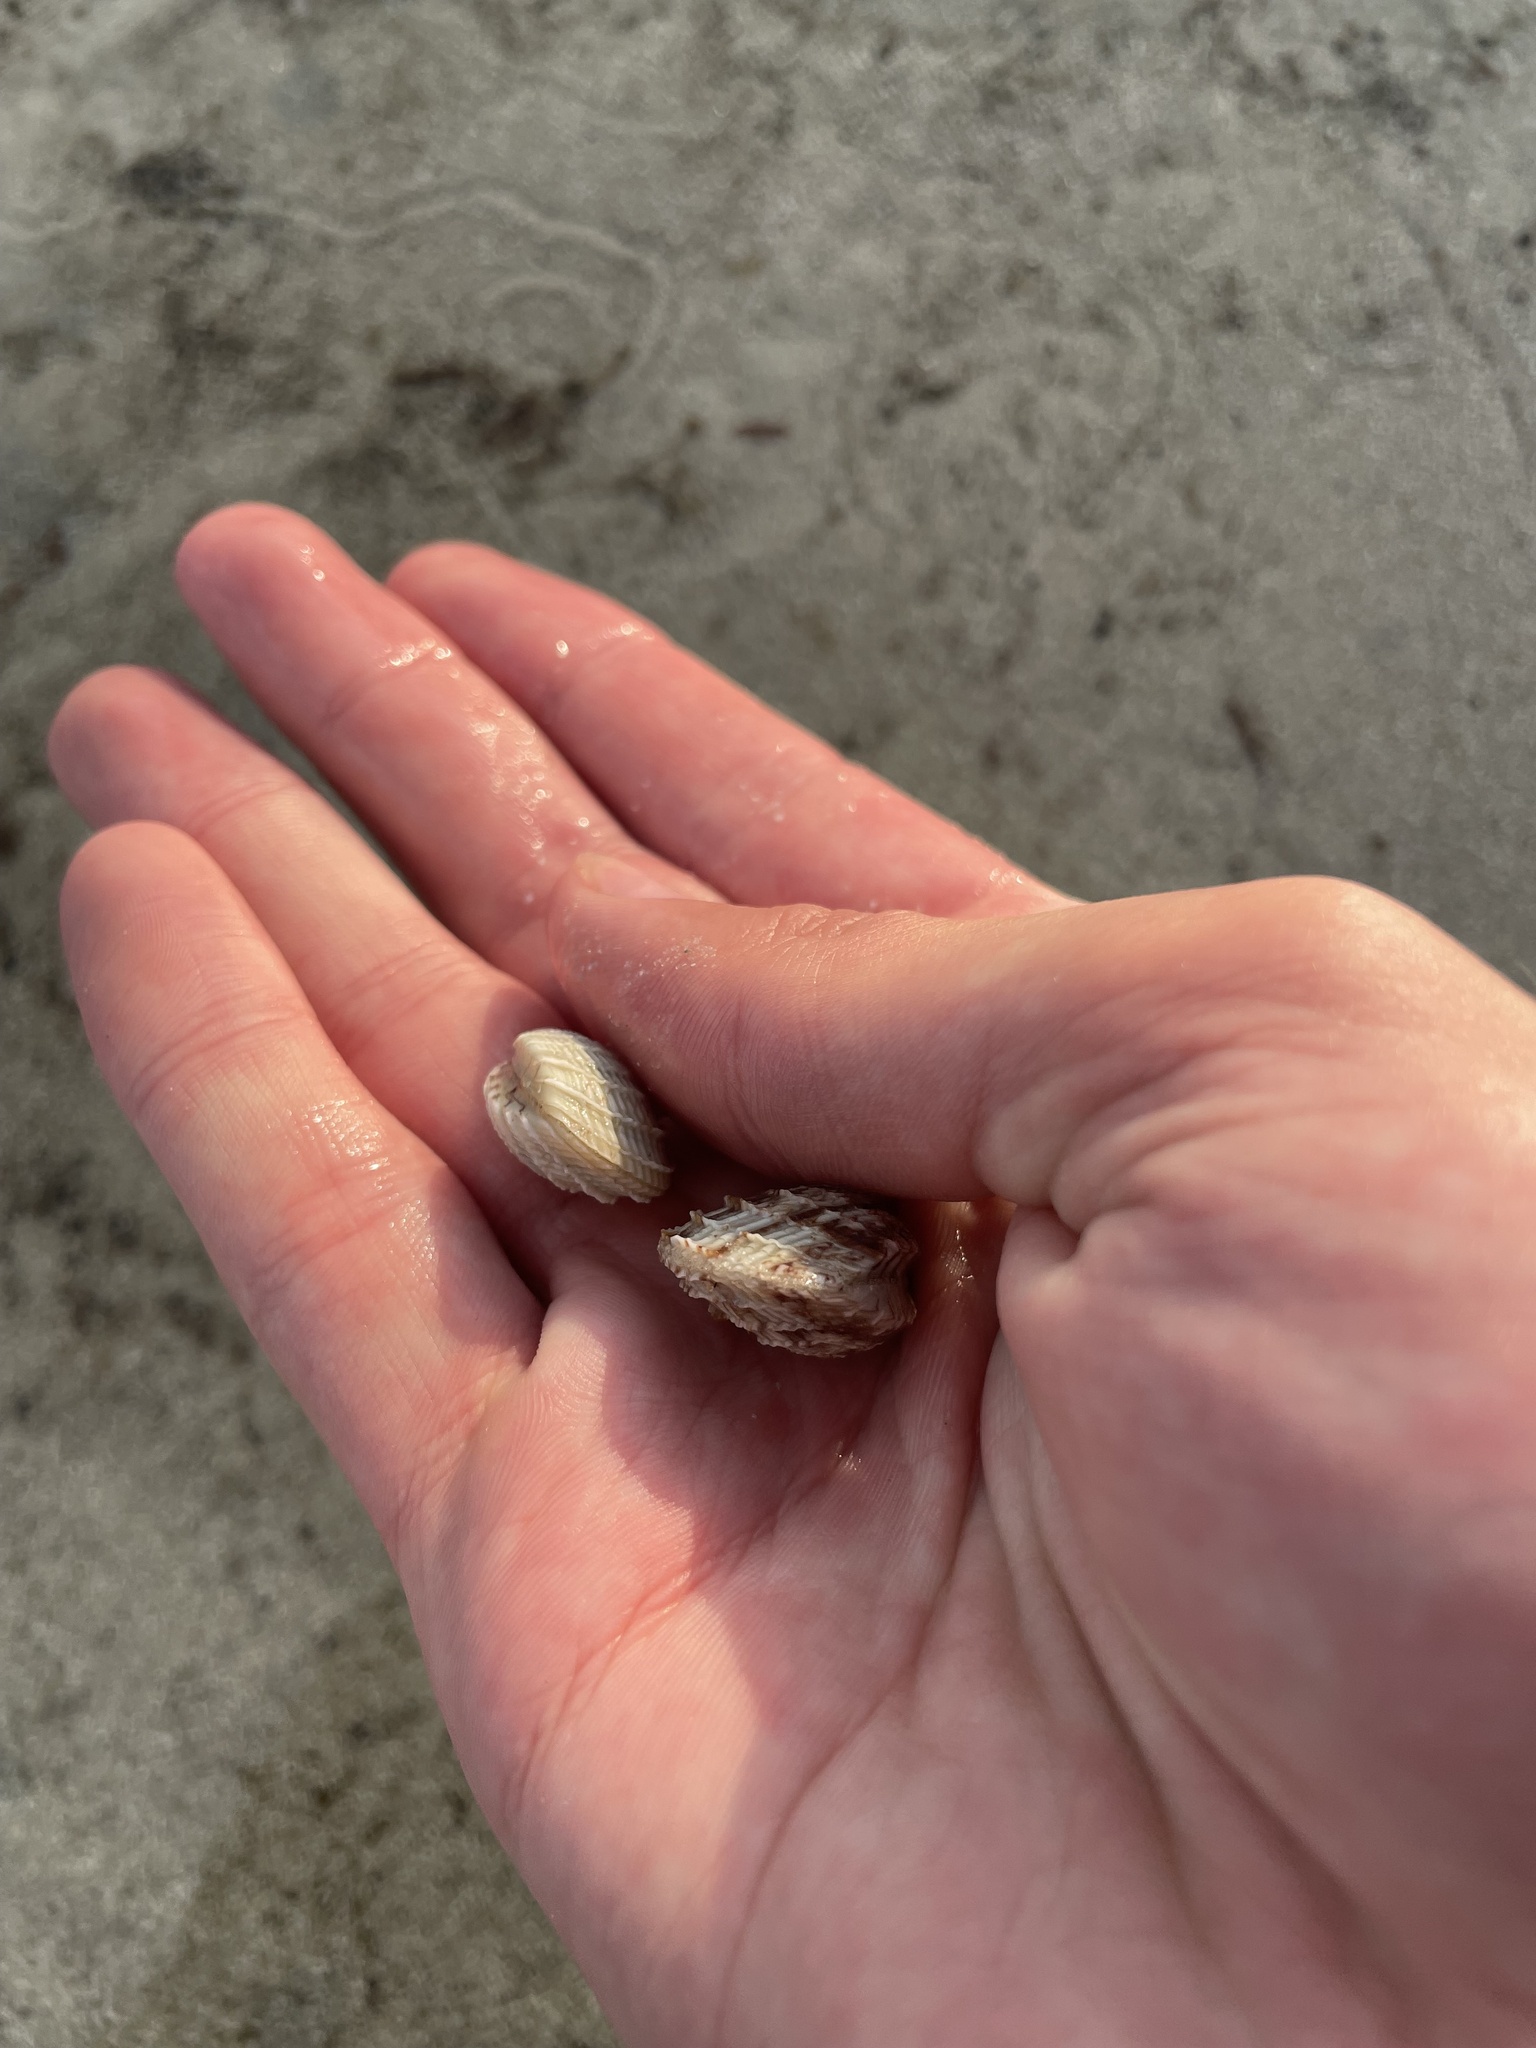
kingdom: Animalia
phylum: Mollusca
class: Bivalvia
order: Venerida
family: Veneridae
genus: Chione
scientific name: Chione elevata
